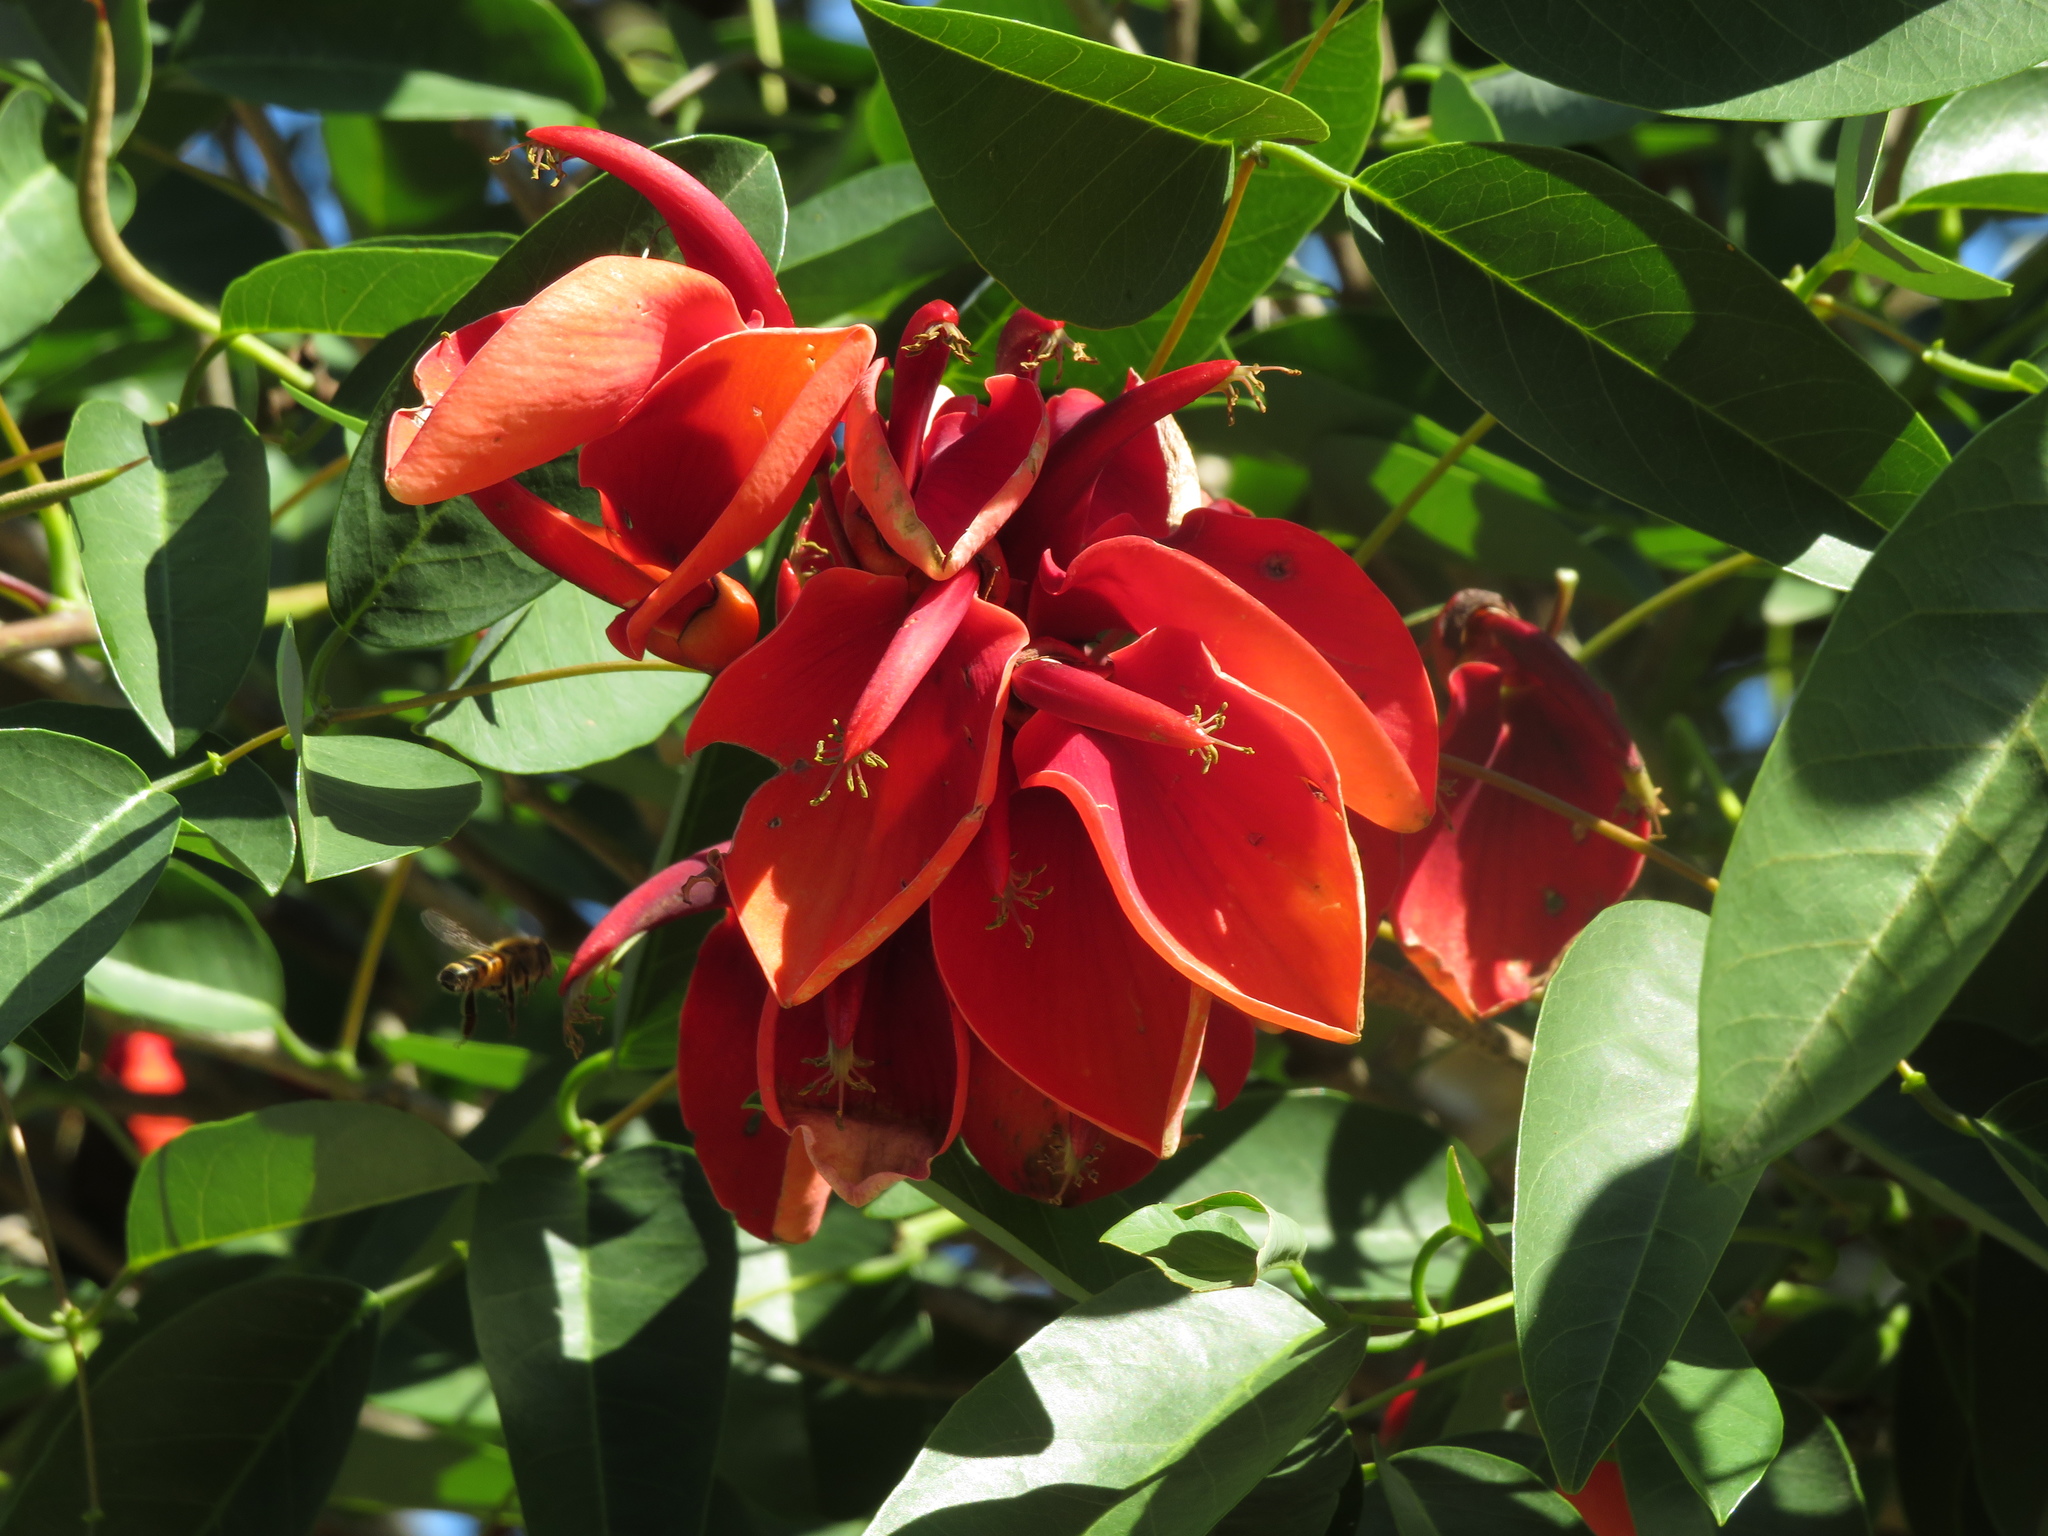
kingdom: Plantae
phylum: Tracheophyta
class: Magnoliopsida
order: Fabales
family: Fabaceae
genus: Erythrina
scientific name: Erythrina crista-galli
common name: Cockspur coral tree
